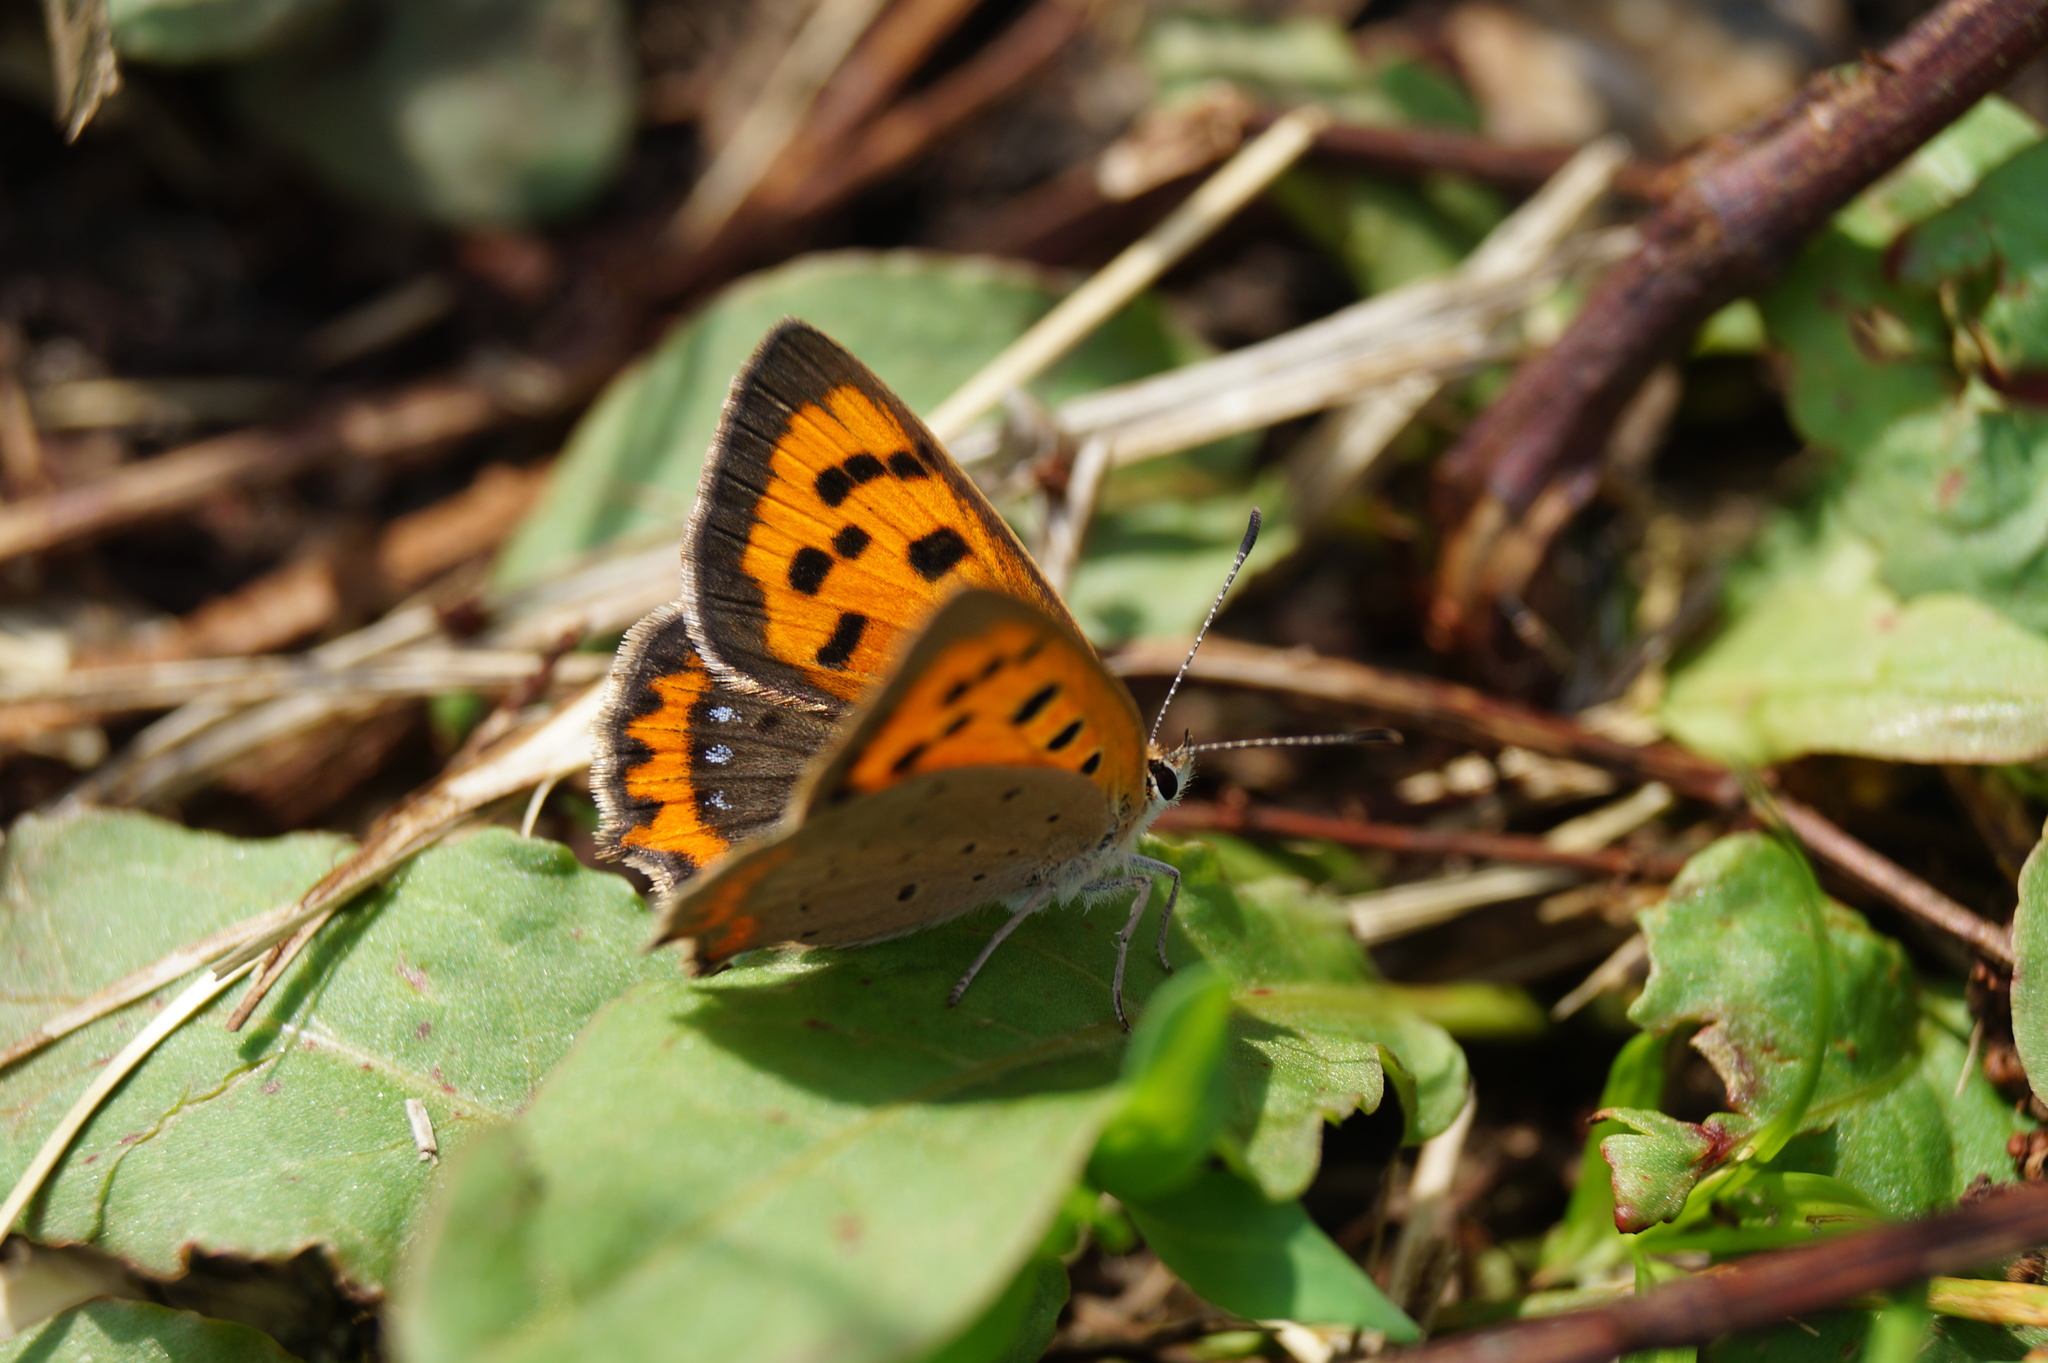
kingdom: Animalia
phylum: Arthropoda
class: Insecta
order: Lepidoptera
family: Lycaenidae
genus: Lycaena
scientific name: Lycaena phlaeas
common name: Small copper
